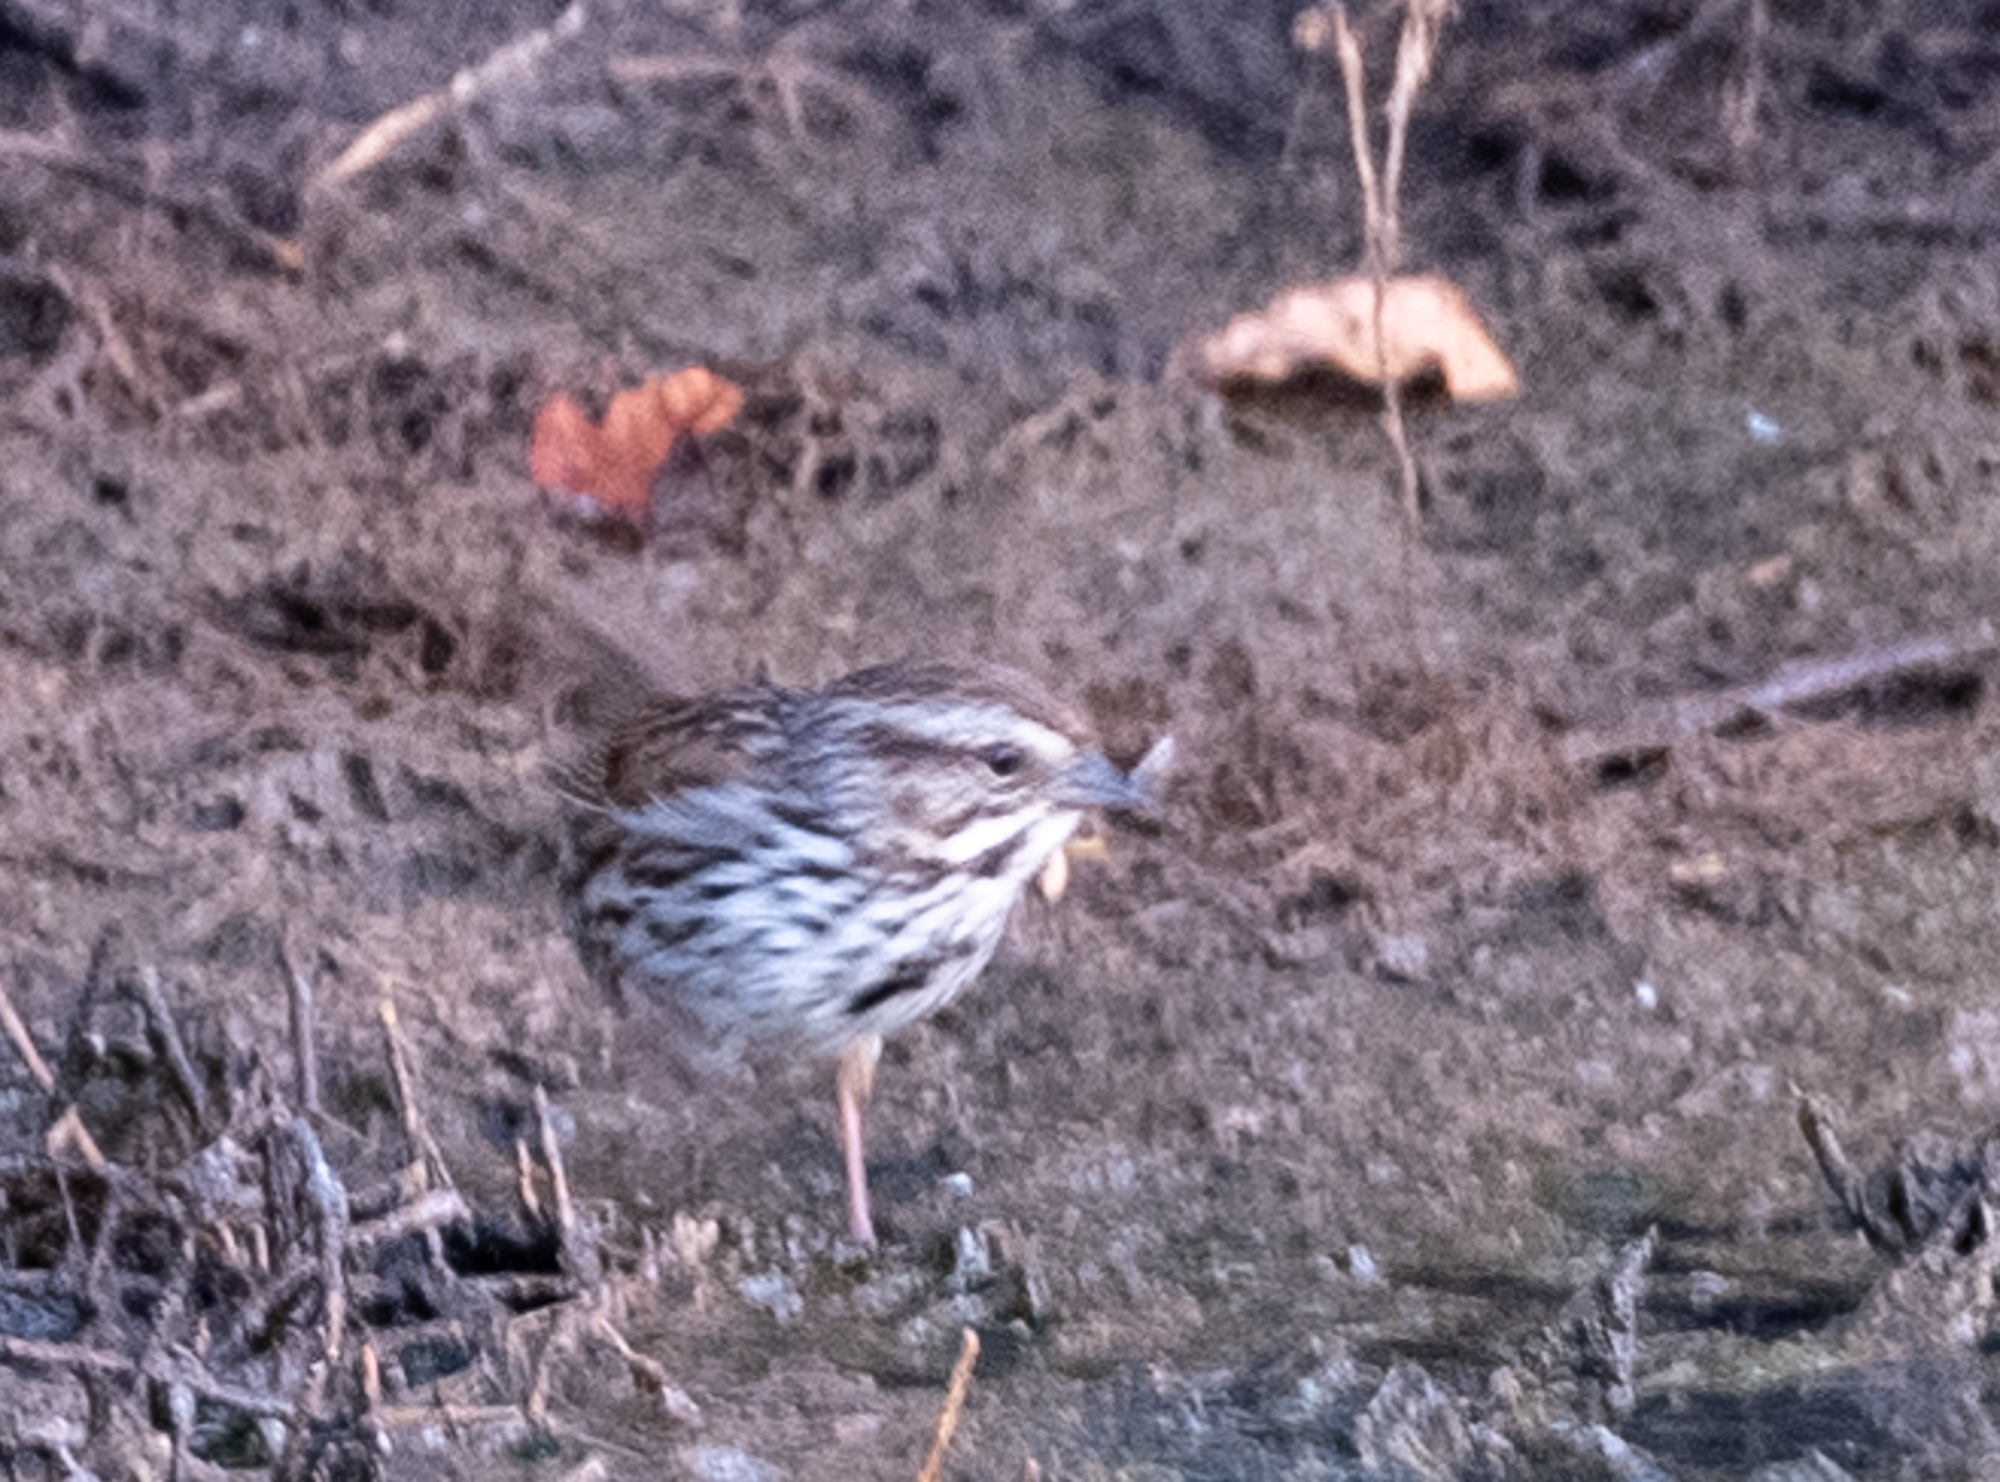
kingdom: Animalia
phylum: Chordata
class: Aves
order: Passeriformes
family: Passerellidae
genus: Melospiza
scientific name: Melospiza melodia
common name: Song sparrow
